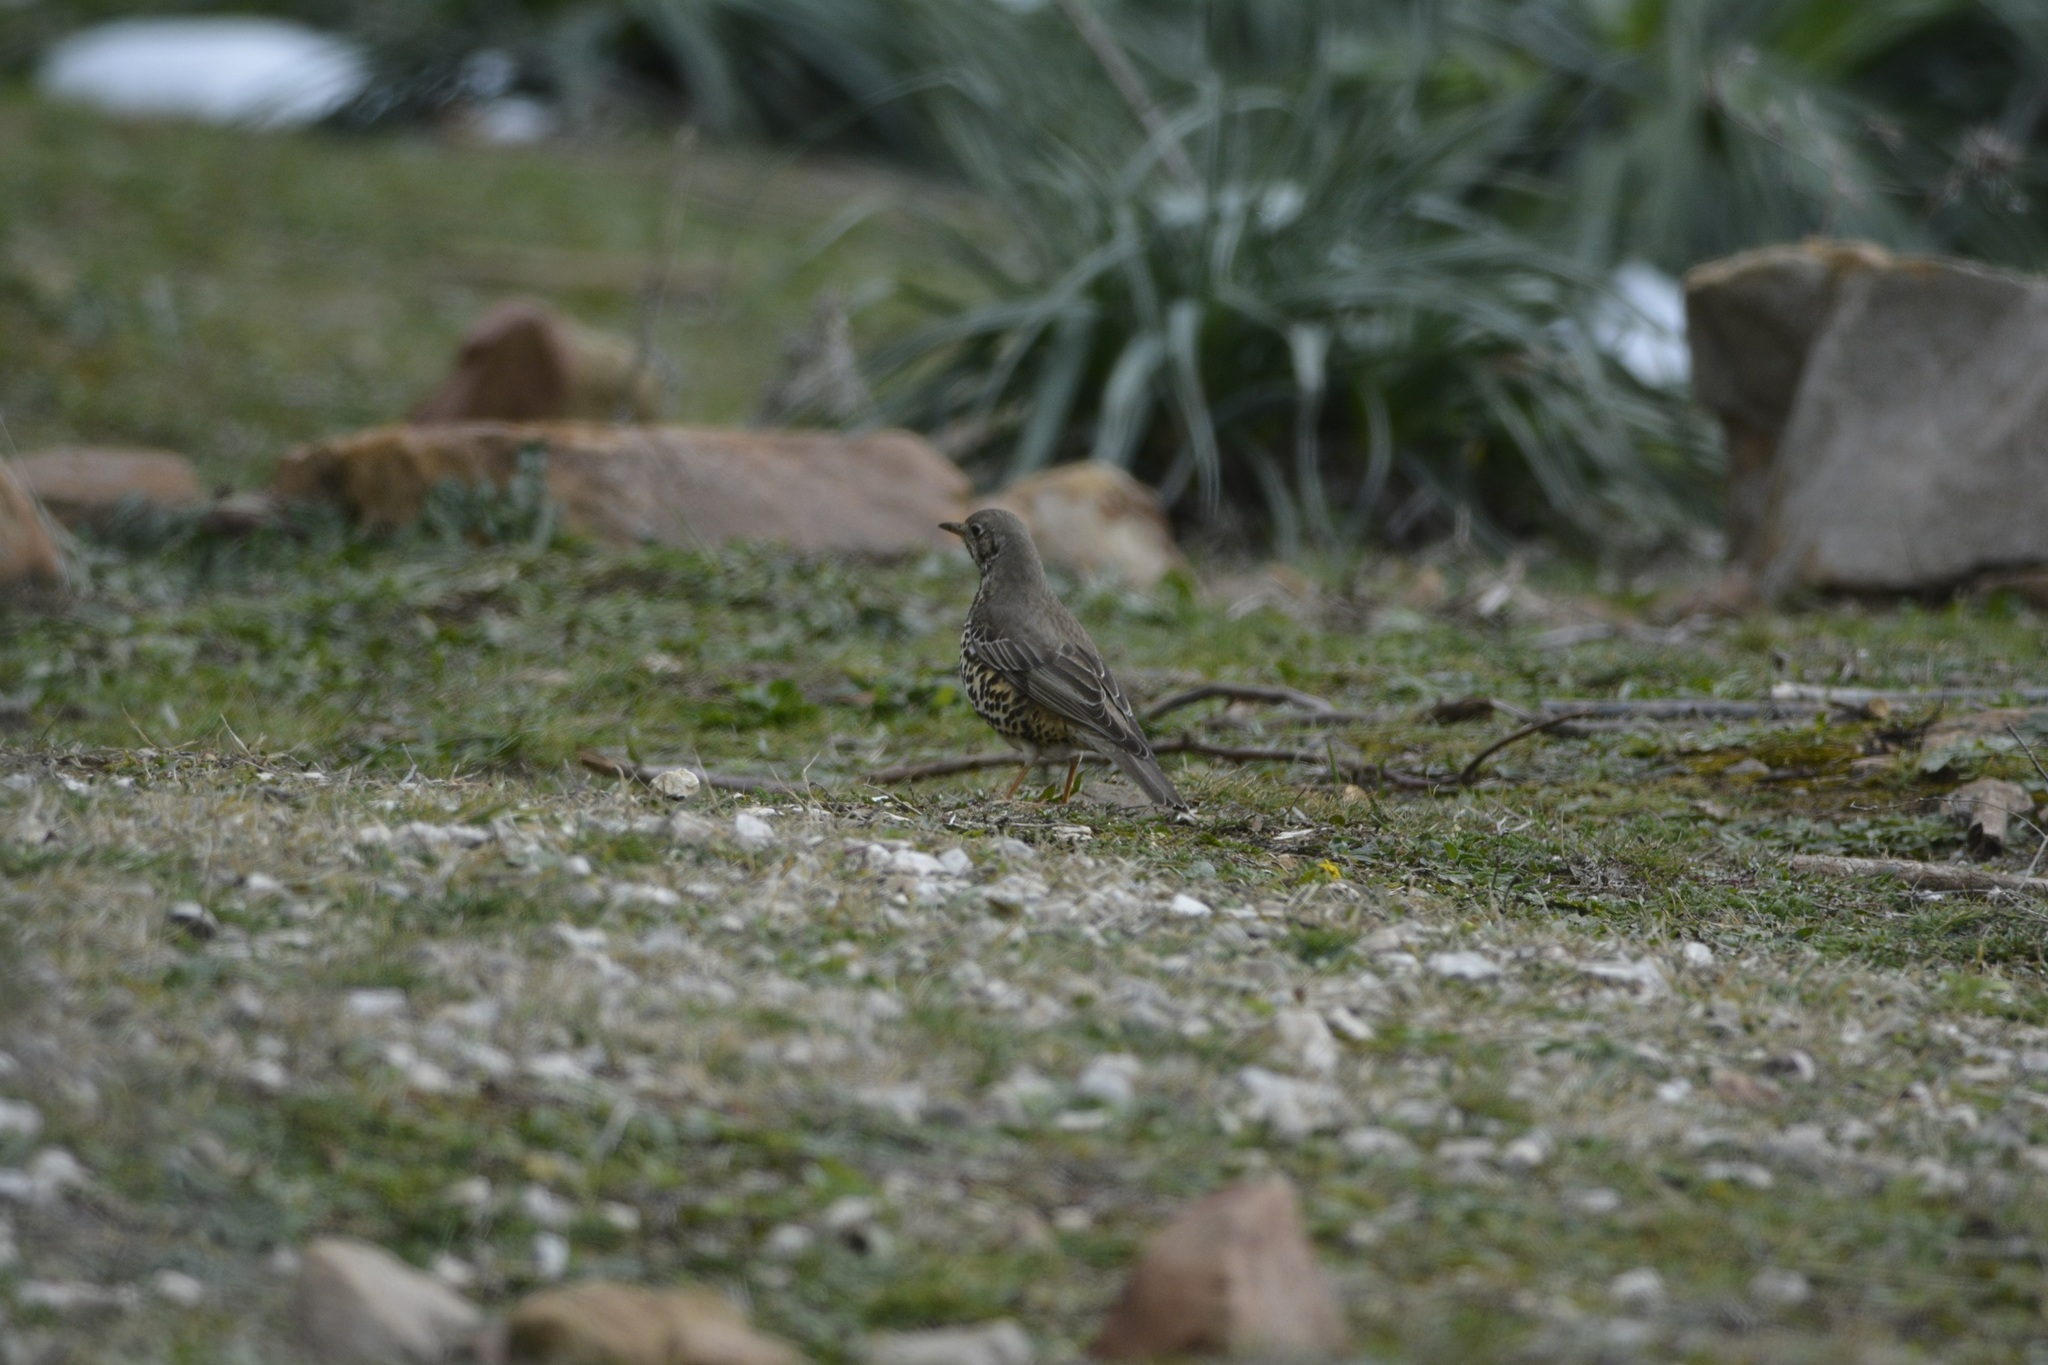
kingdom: Animalia
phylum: Chordata
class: Aves
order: Passeriformes
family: Turdidae
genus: Turdus
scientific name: Turdus viscivorus
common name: Mistle thrush
